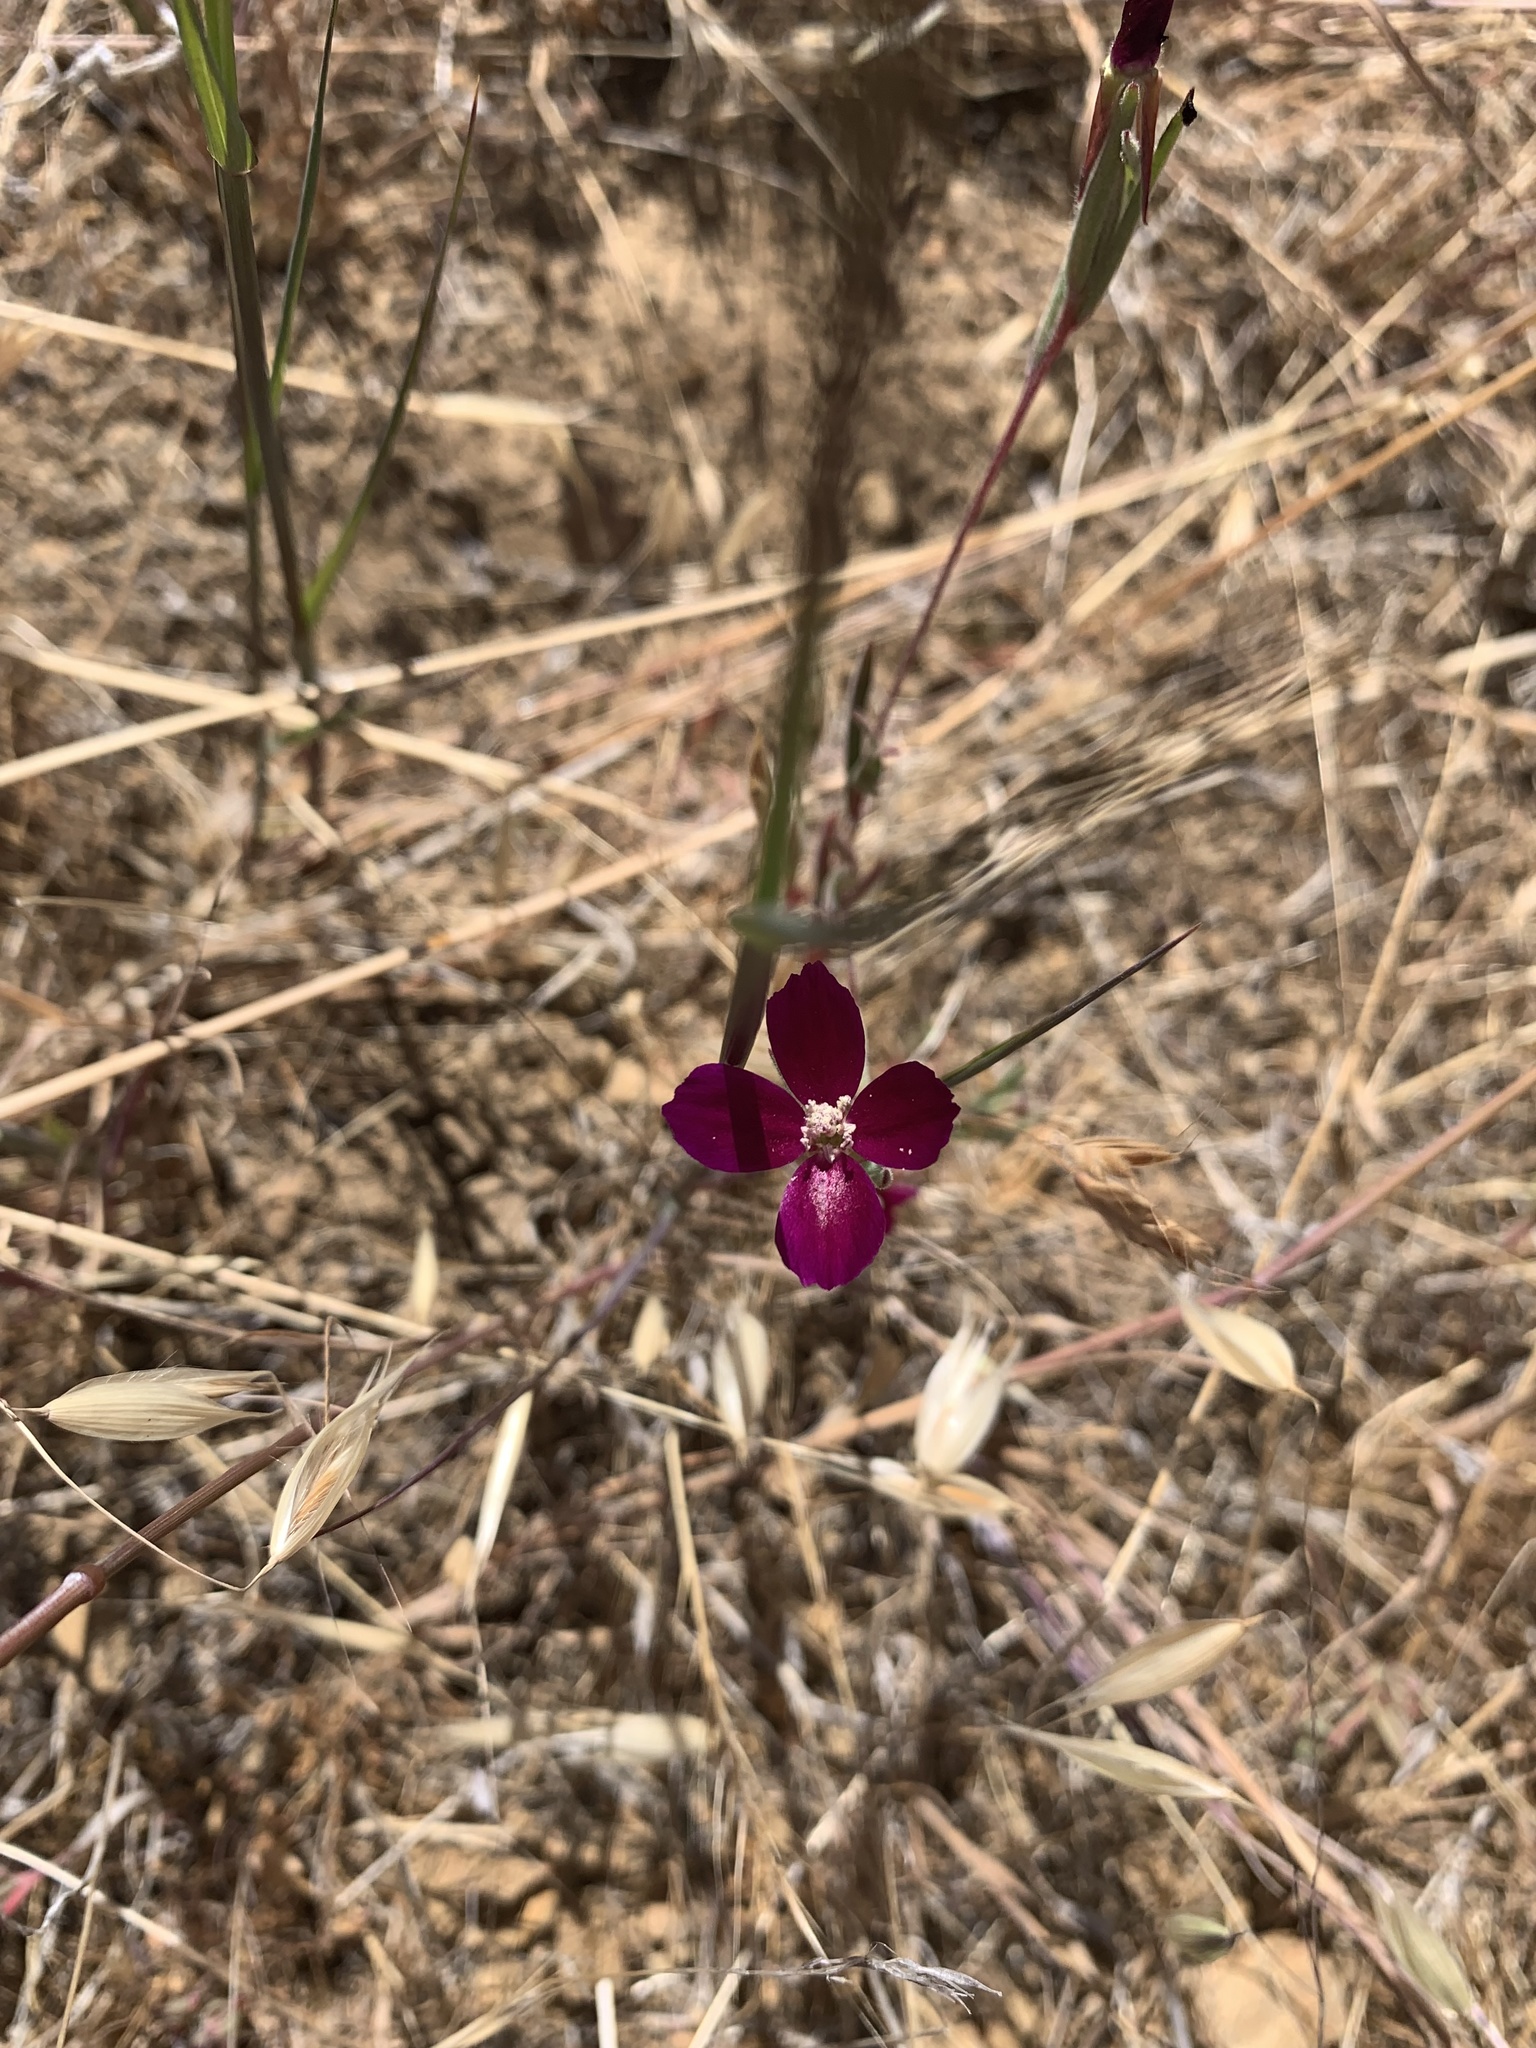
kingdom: Plantae
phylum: Tracheophyta
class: Magnoliopsida
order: Myrtales
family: Onagraceae
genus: Clarkia
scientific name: Clarkia purpurea
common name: Purple clarkia
